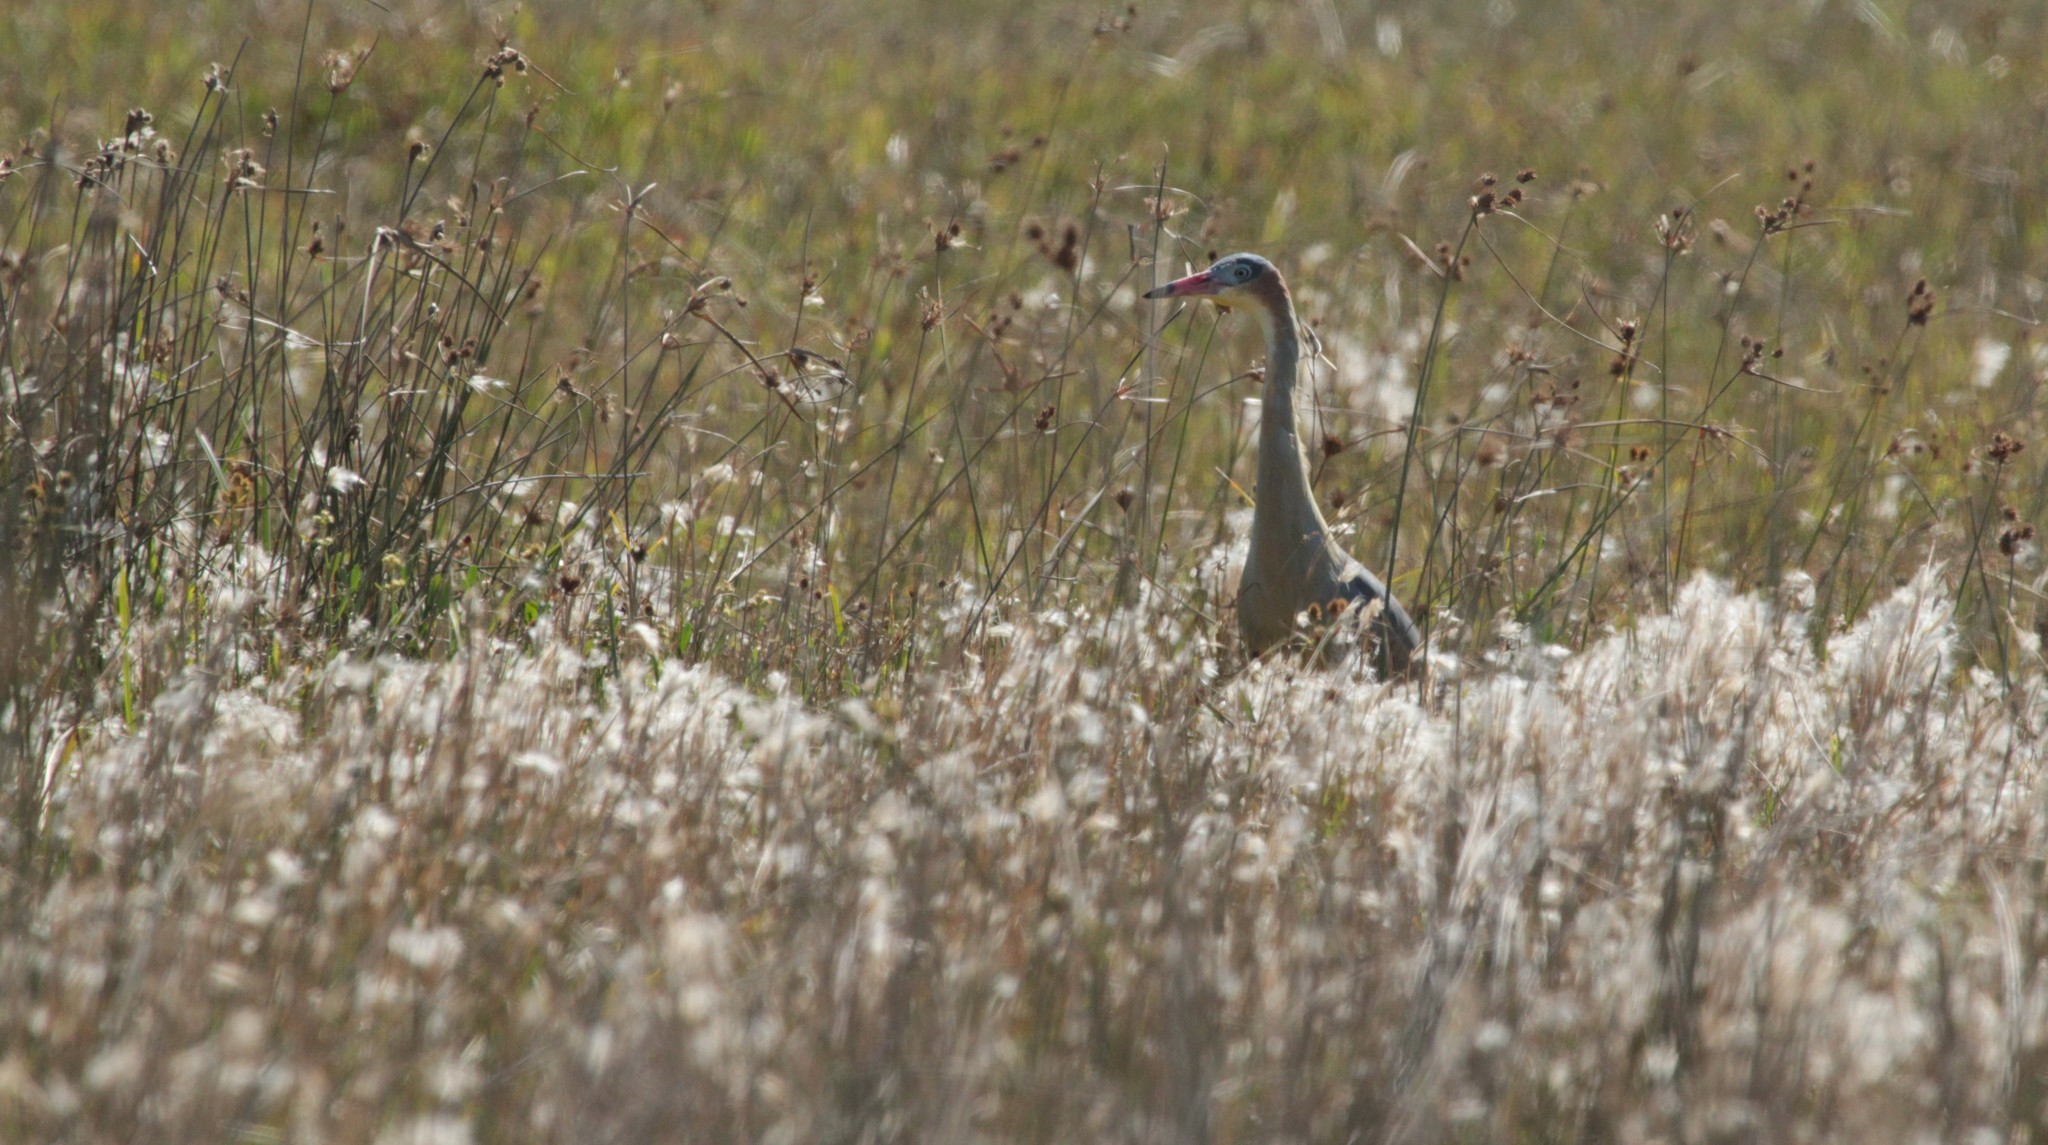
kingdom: Animalia
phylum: Chordata
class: Aves
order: Pelecaniformes
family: Ardeidae
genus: Syrigma
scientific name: Syrigma sibilatrix
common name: Whistling heron
